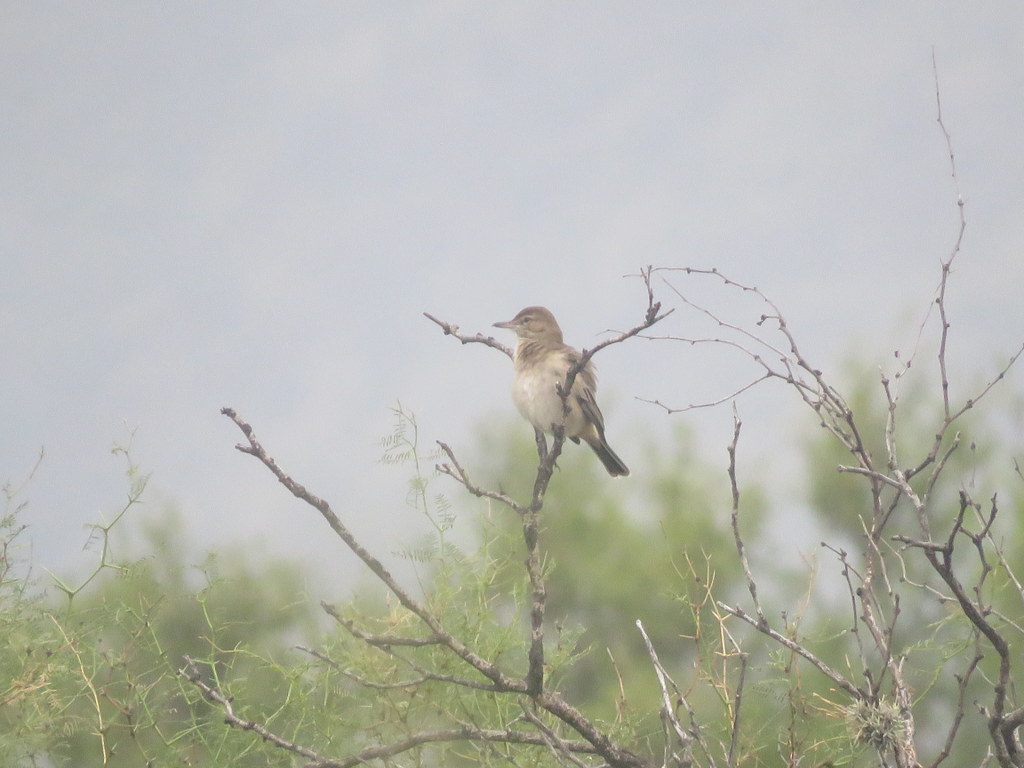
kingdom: Animalia
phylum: Chordata
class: Aves
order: Passeriformes
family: Tyrannidae
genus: Agriornis
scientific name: Agriornis micropterus
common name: Grey-bellied shrike-tyrant
